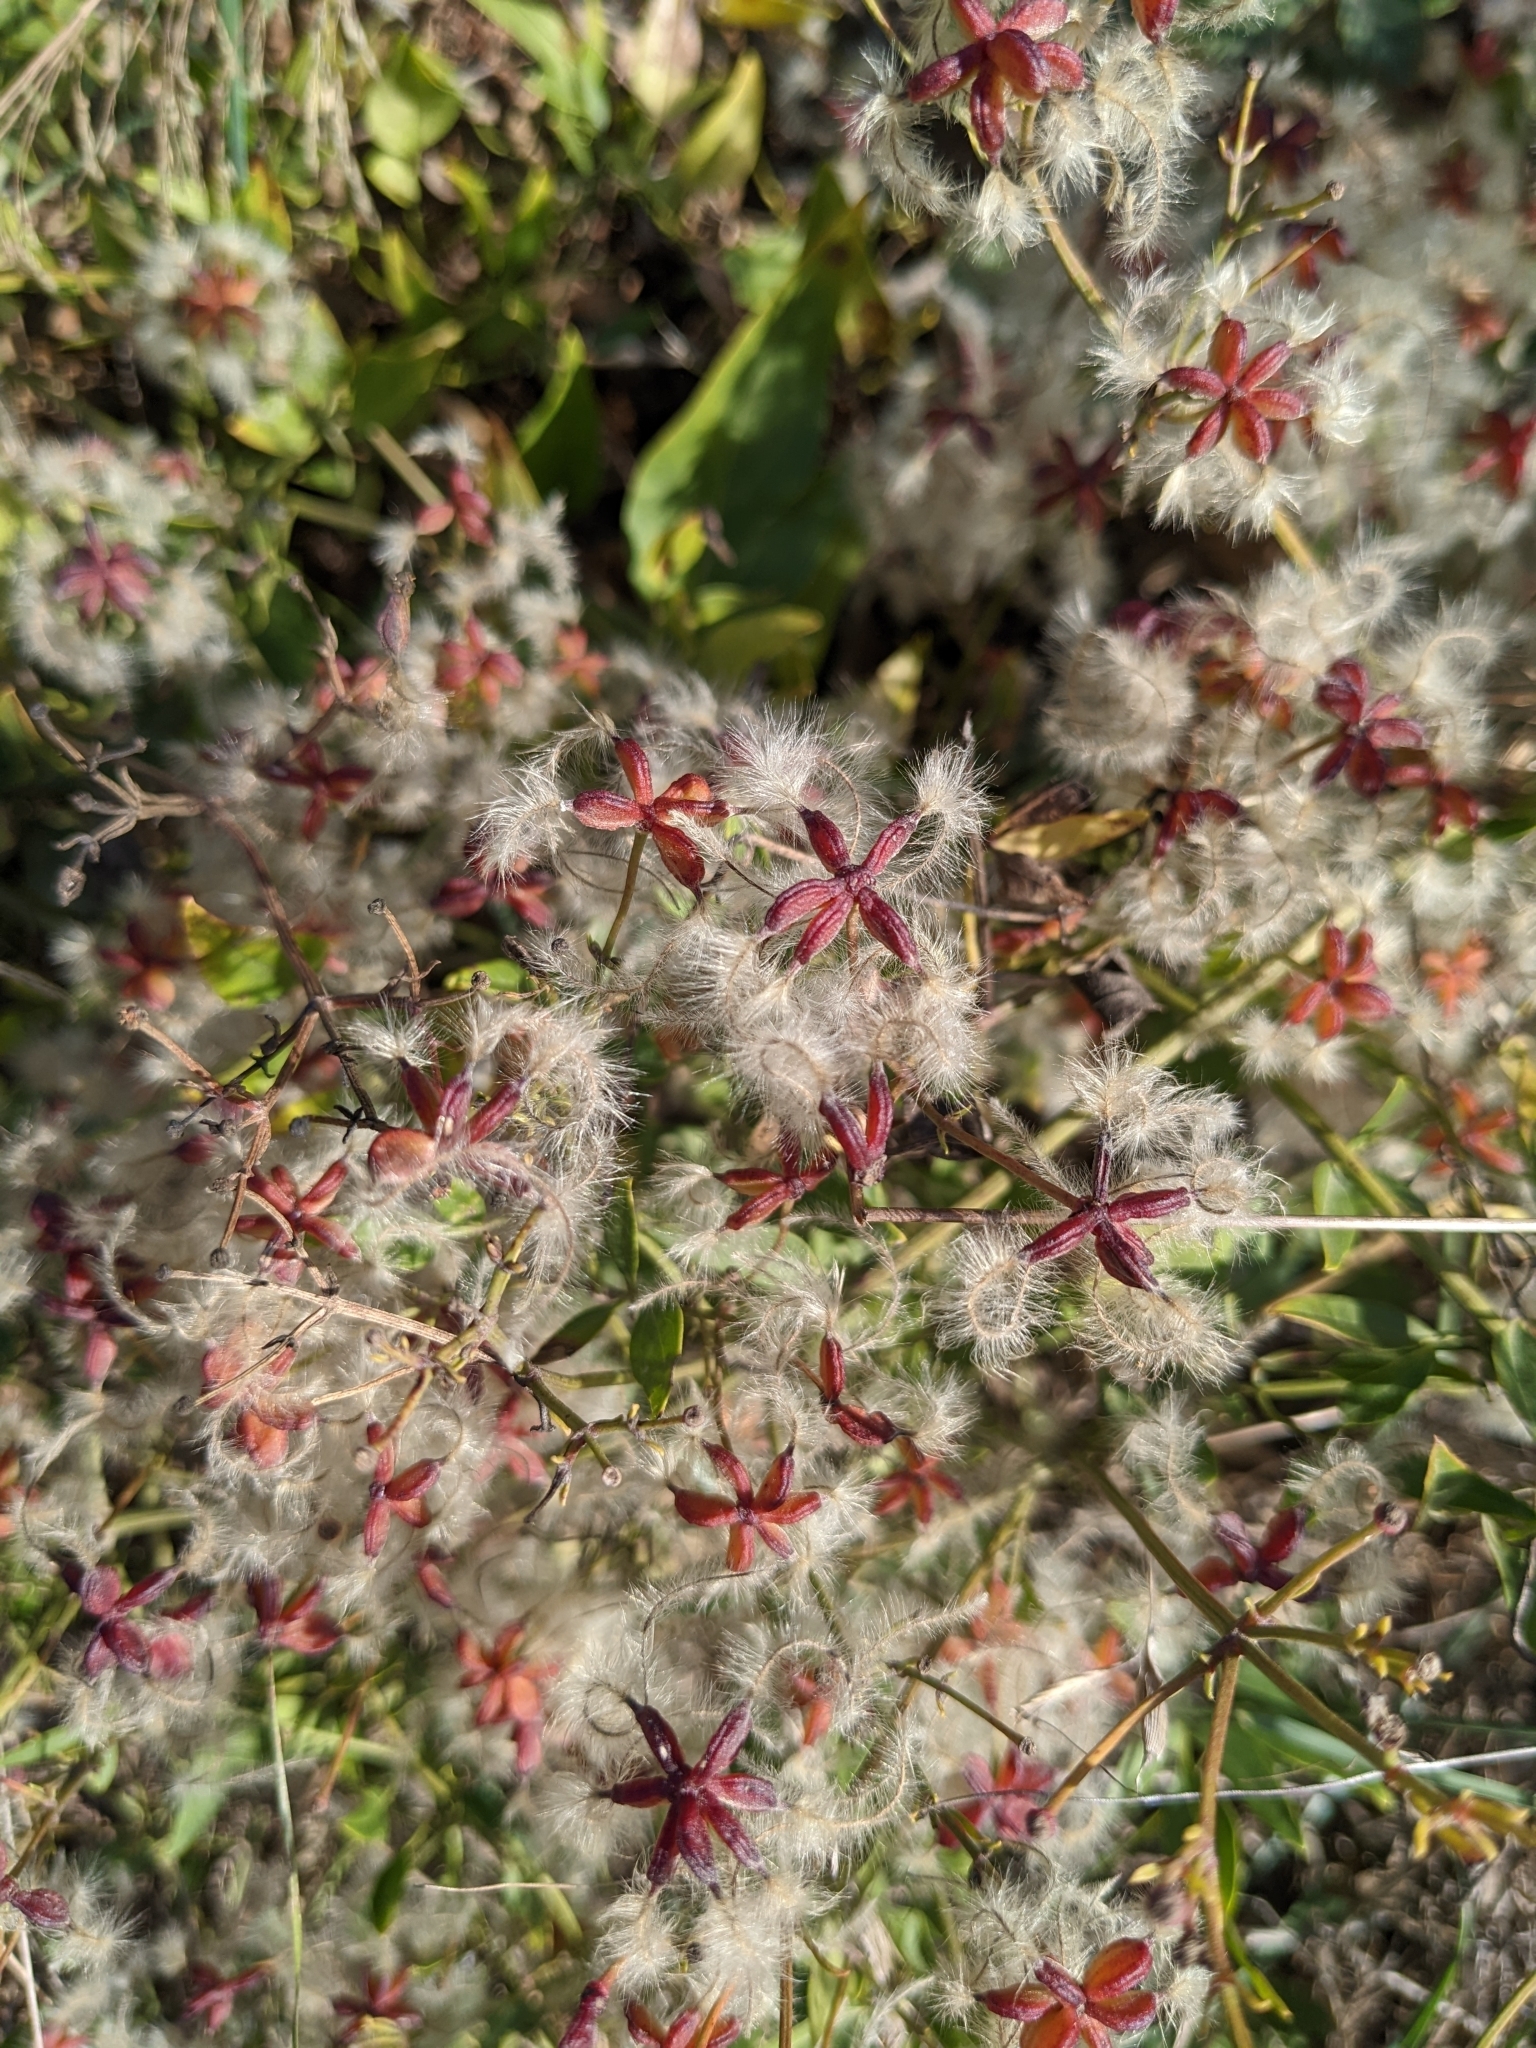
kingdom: Plantae
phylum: Tracheophyta
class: Magnoliopsida
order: Ranunculales
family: Ranunculaceae
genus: Clematis
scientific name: Clematis flammula
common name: Virgin's-bower
